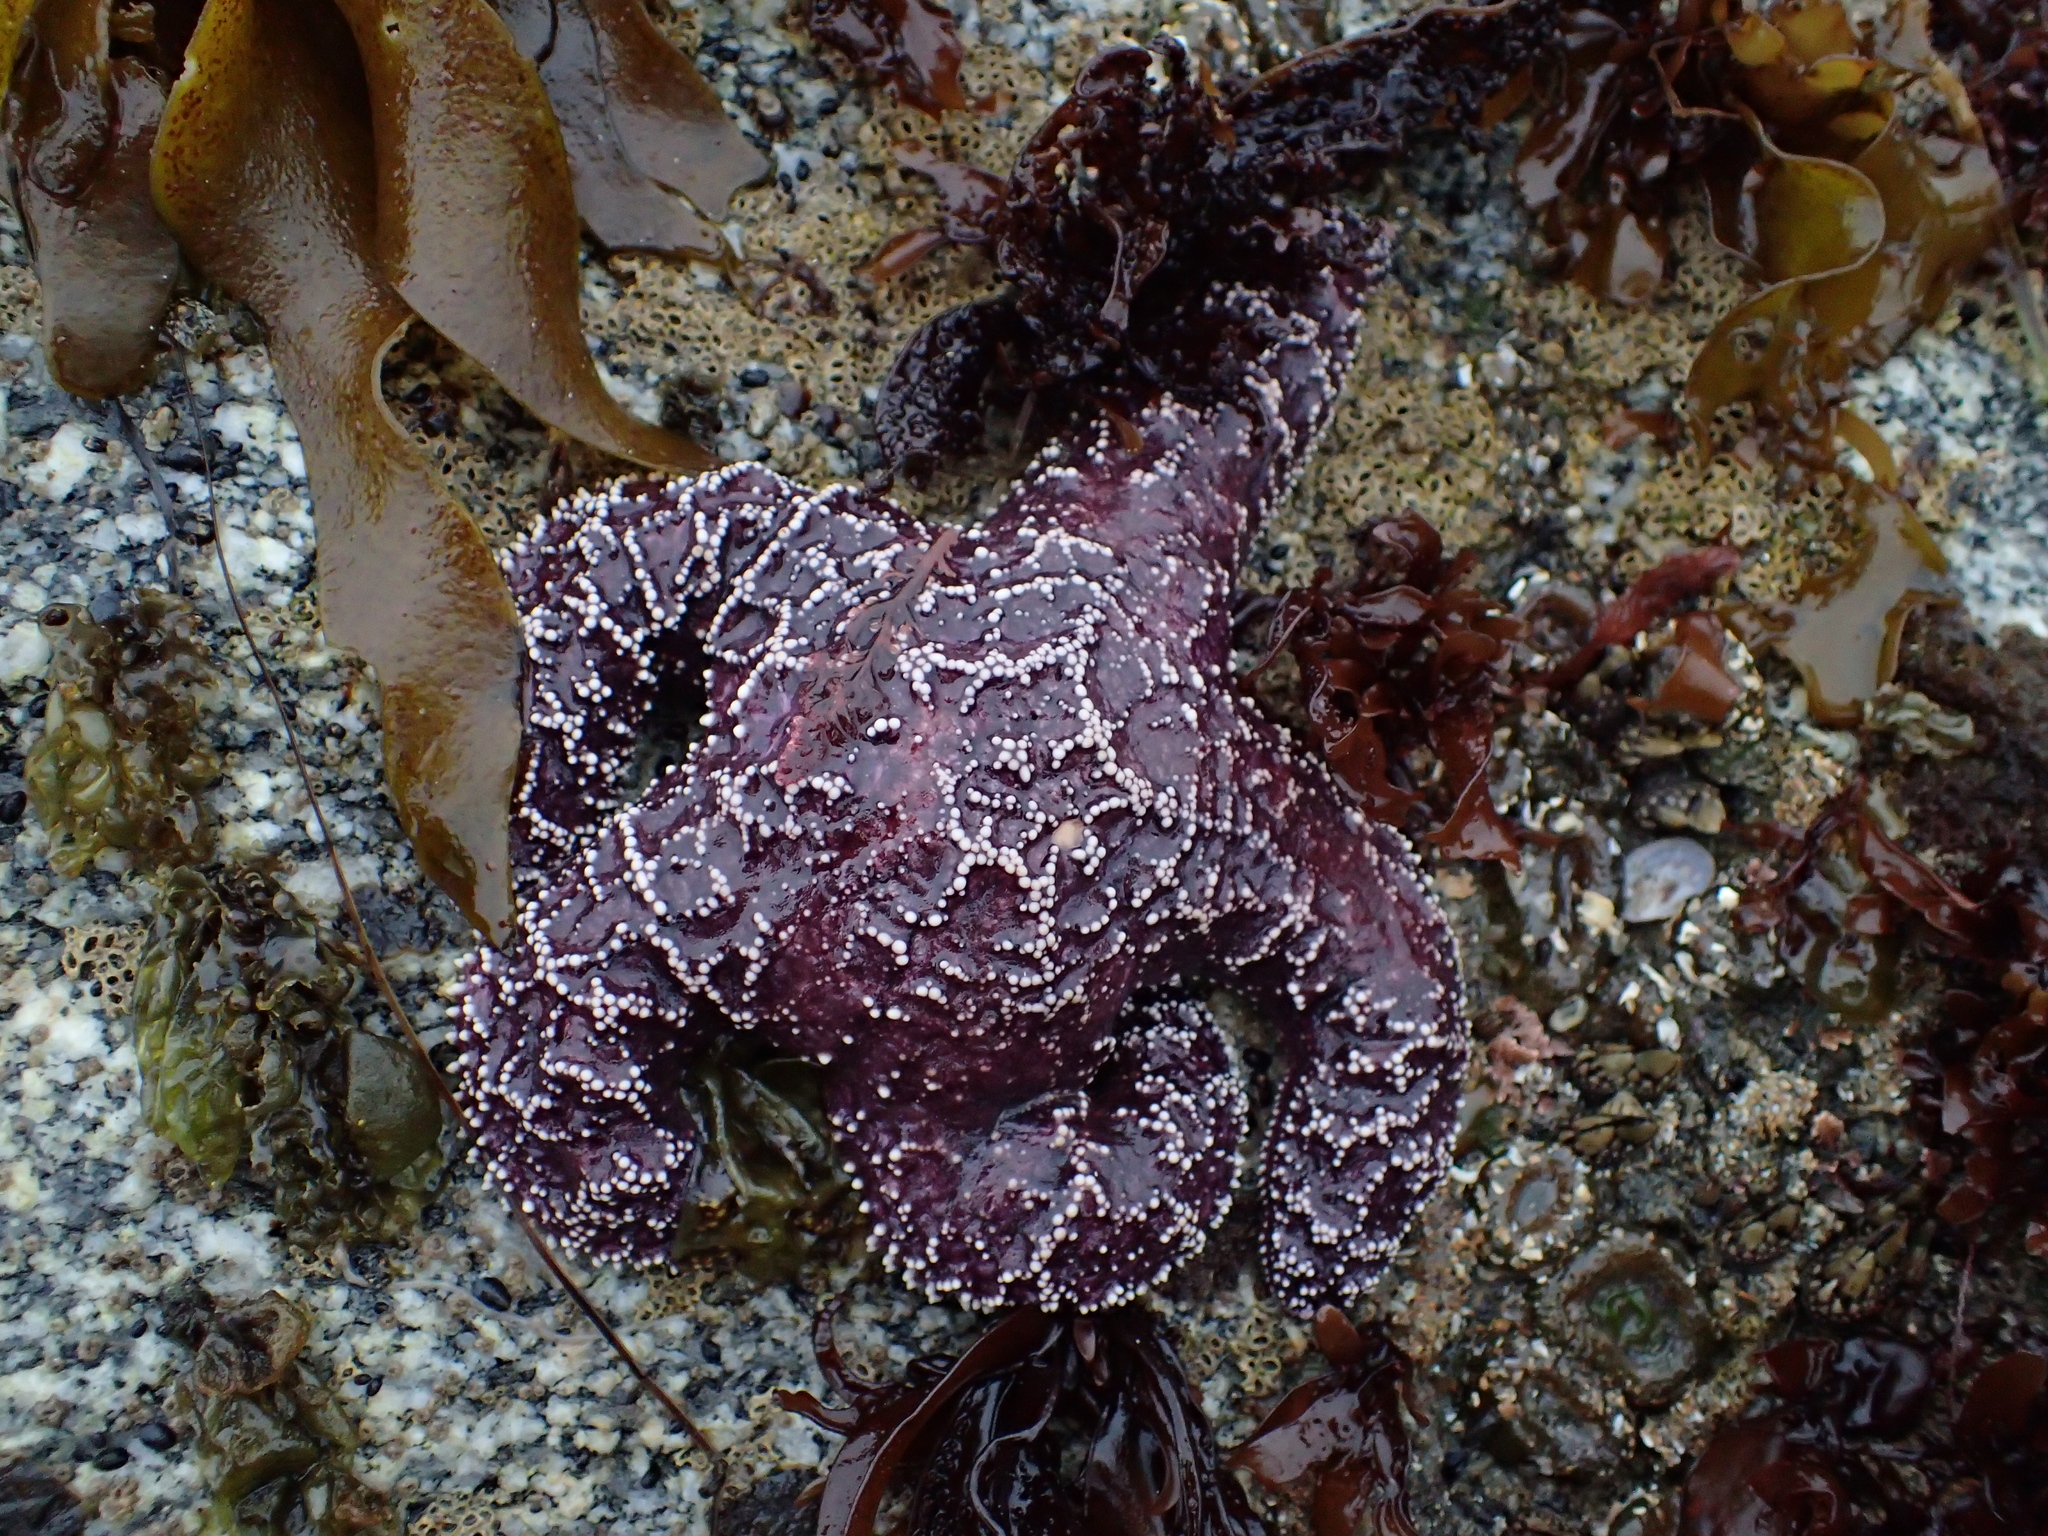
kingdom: Animalia
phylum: Echinodermata
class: Asteroidea
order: Forcipulatida
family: Asteriidae
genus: Pisaster
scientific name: Pisaster ochraceus
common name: Ochre stars
